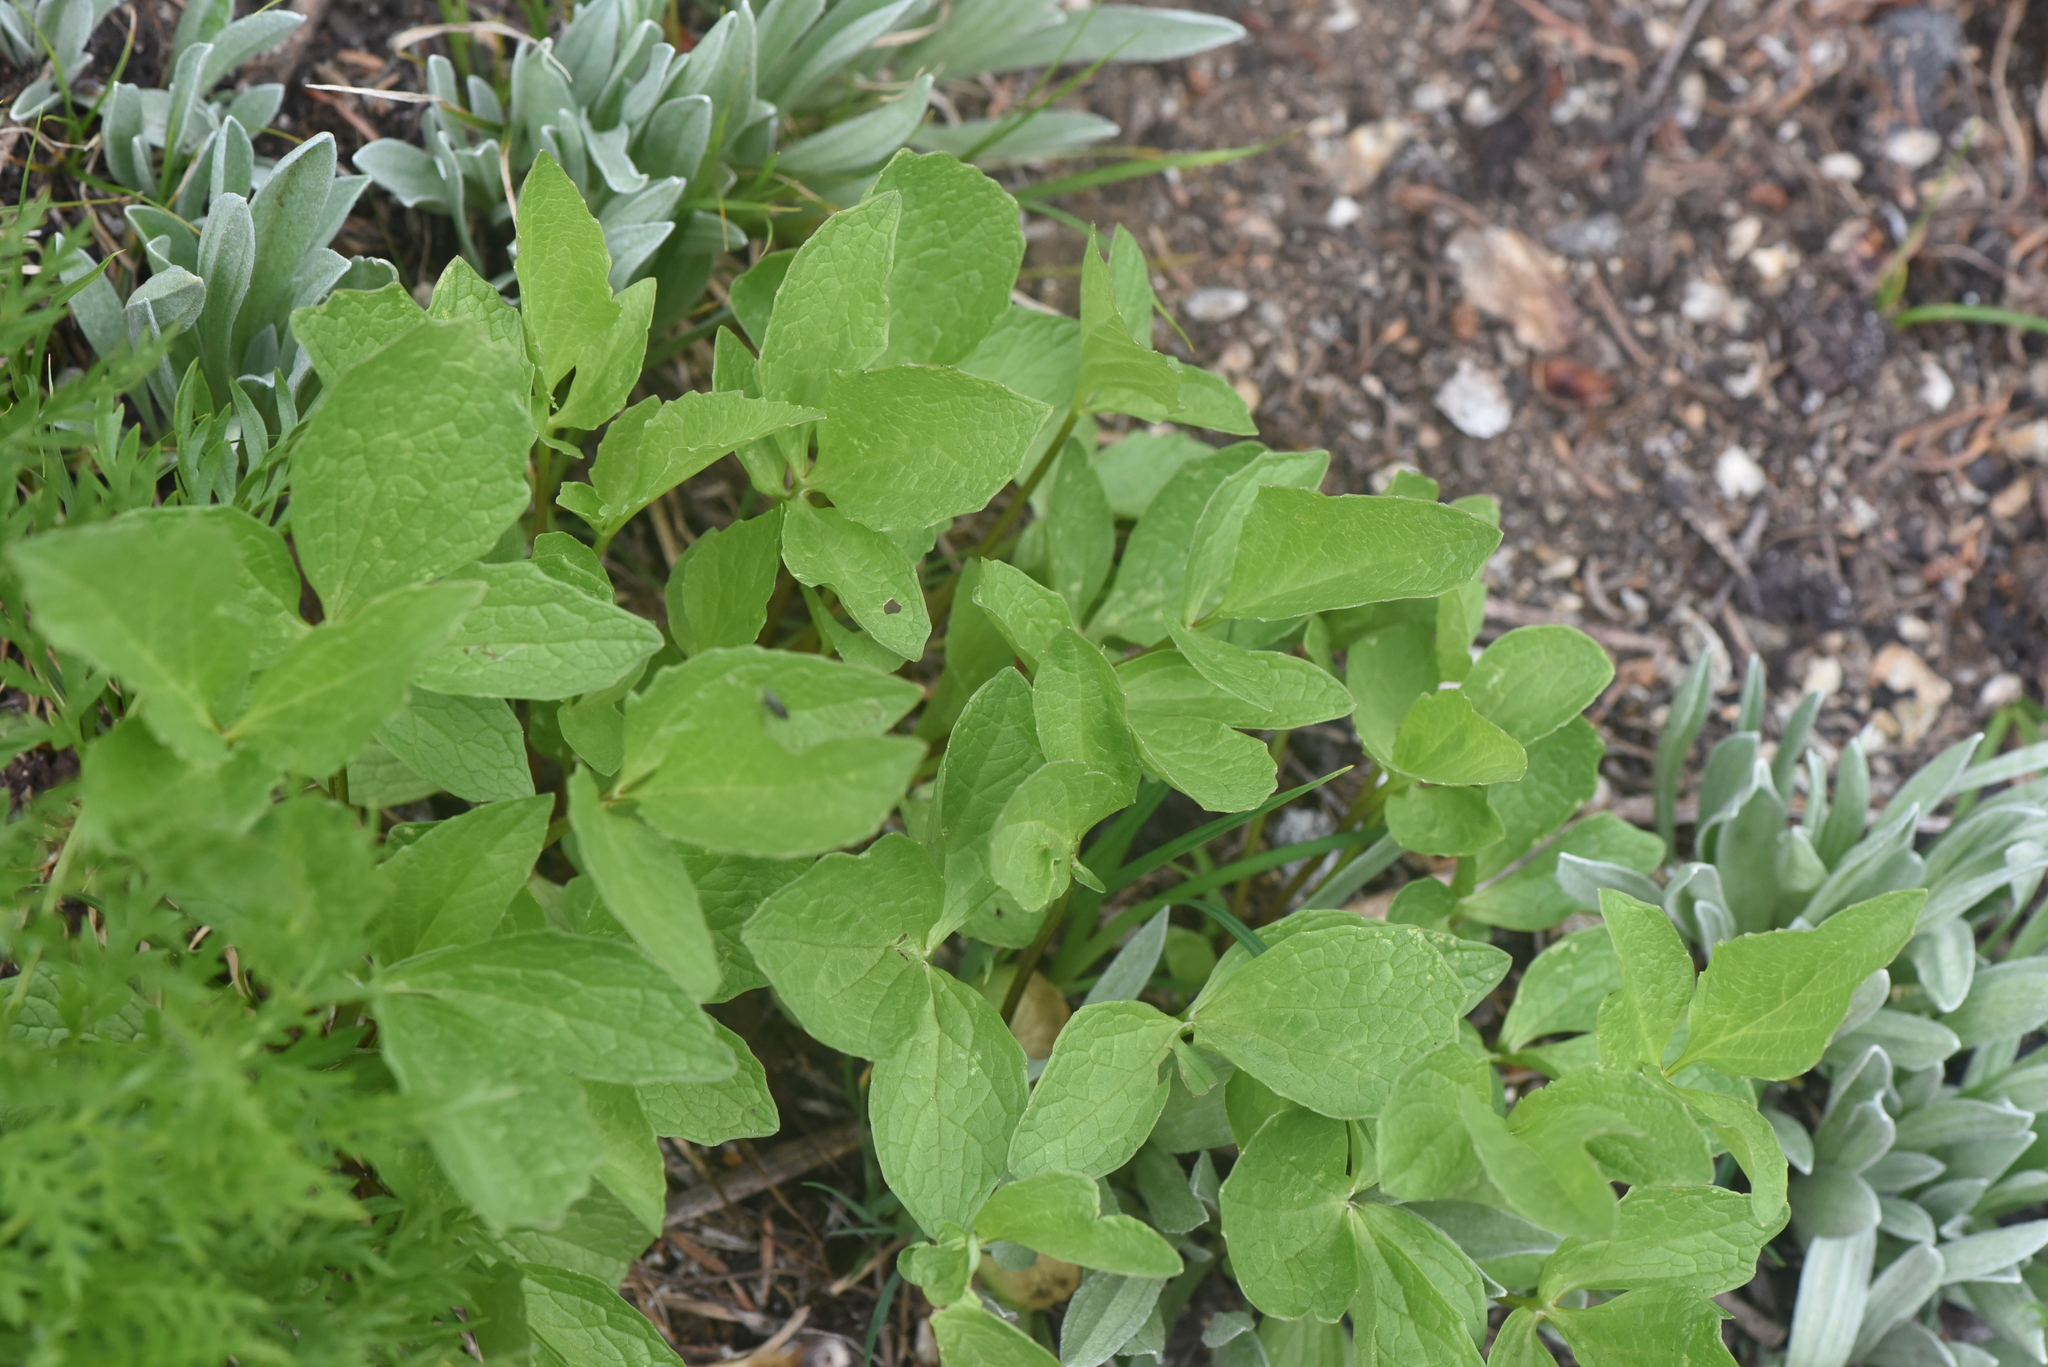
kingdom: Plantae
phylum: Tracheophyta
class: Magnoliopsida
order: Dipsacales
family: Caprifoliaceae
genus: Valeriana
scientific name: Valeriana sitchensis
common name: Pacific valerian
